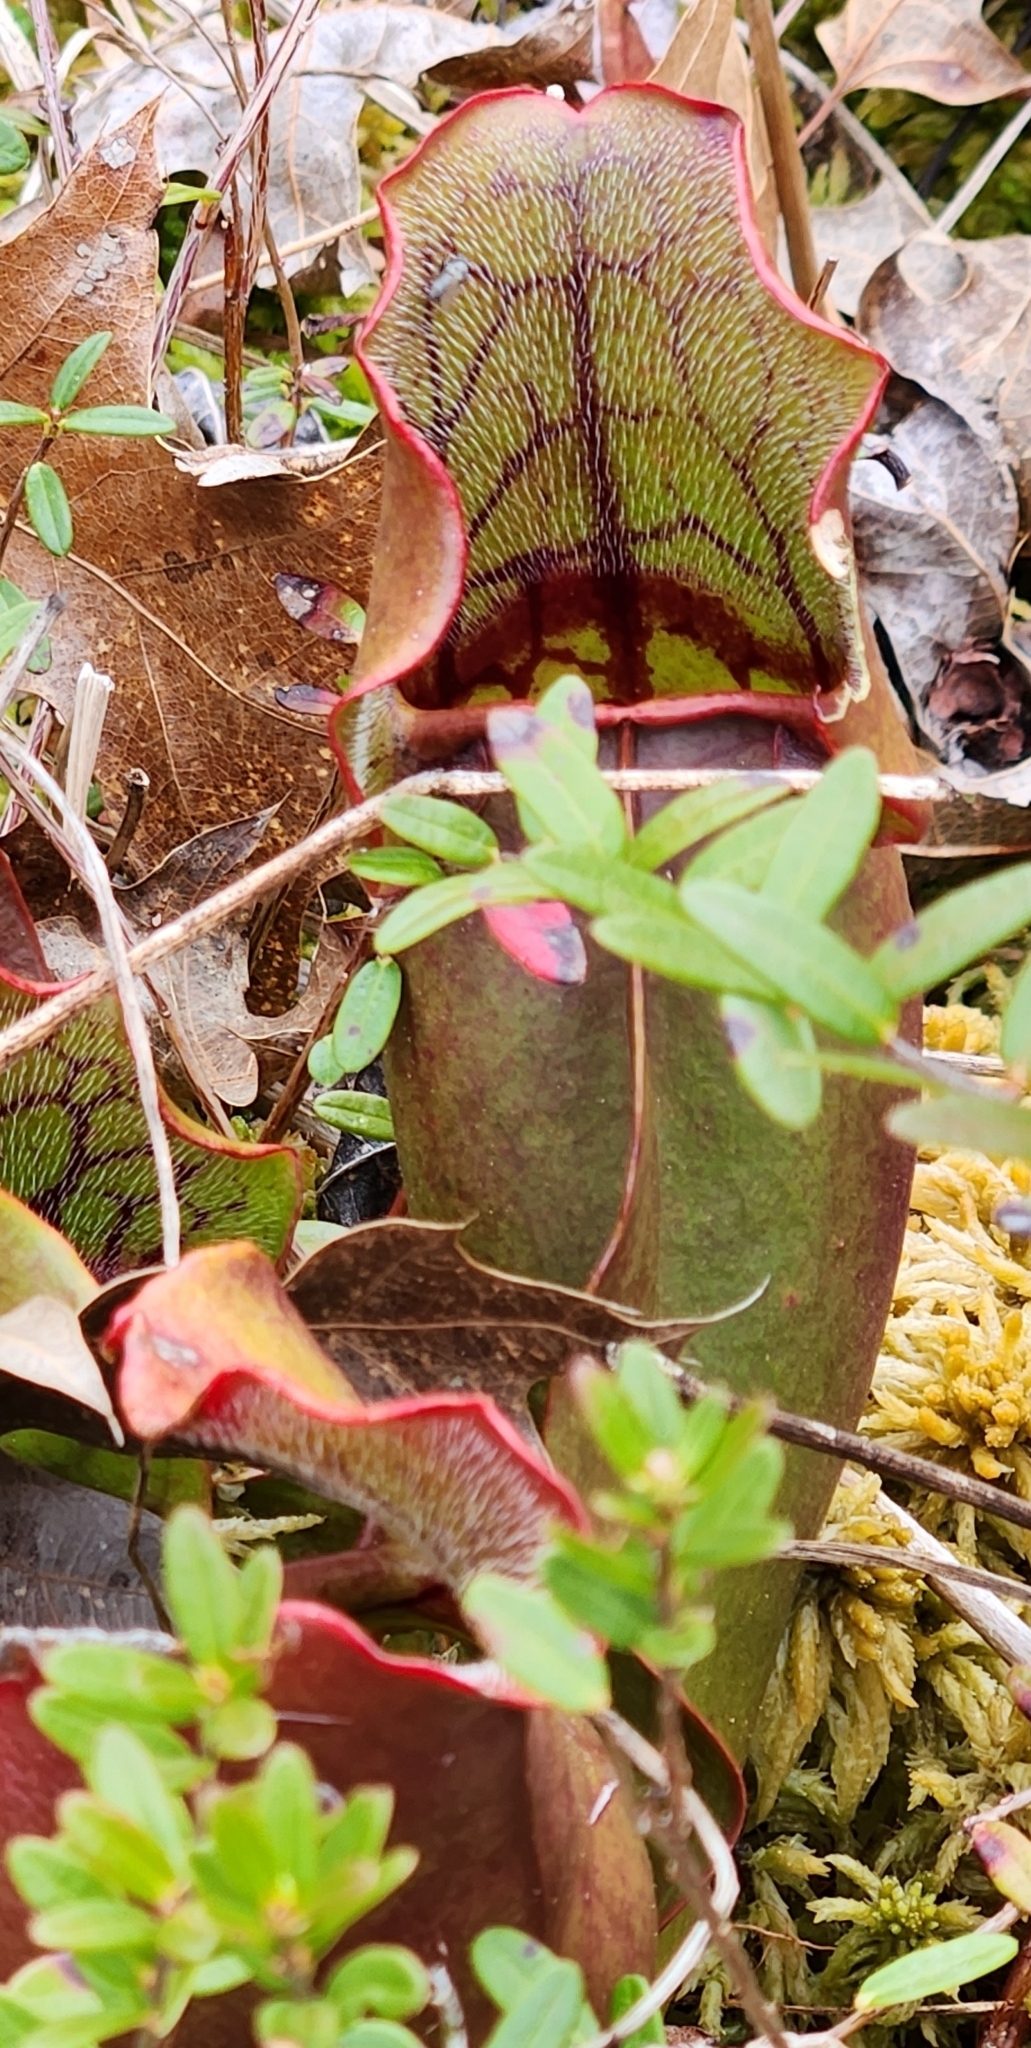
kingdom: Plantae
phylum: Tracheophyta
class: Magnoliopsida
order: Ericales
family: Sarraceniaceae
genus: Sarracenia
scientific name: Sarracenia purpurea
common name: Pitcherplant
